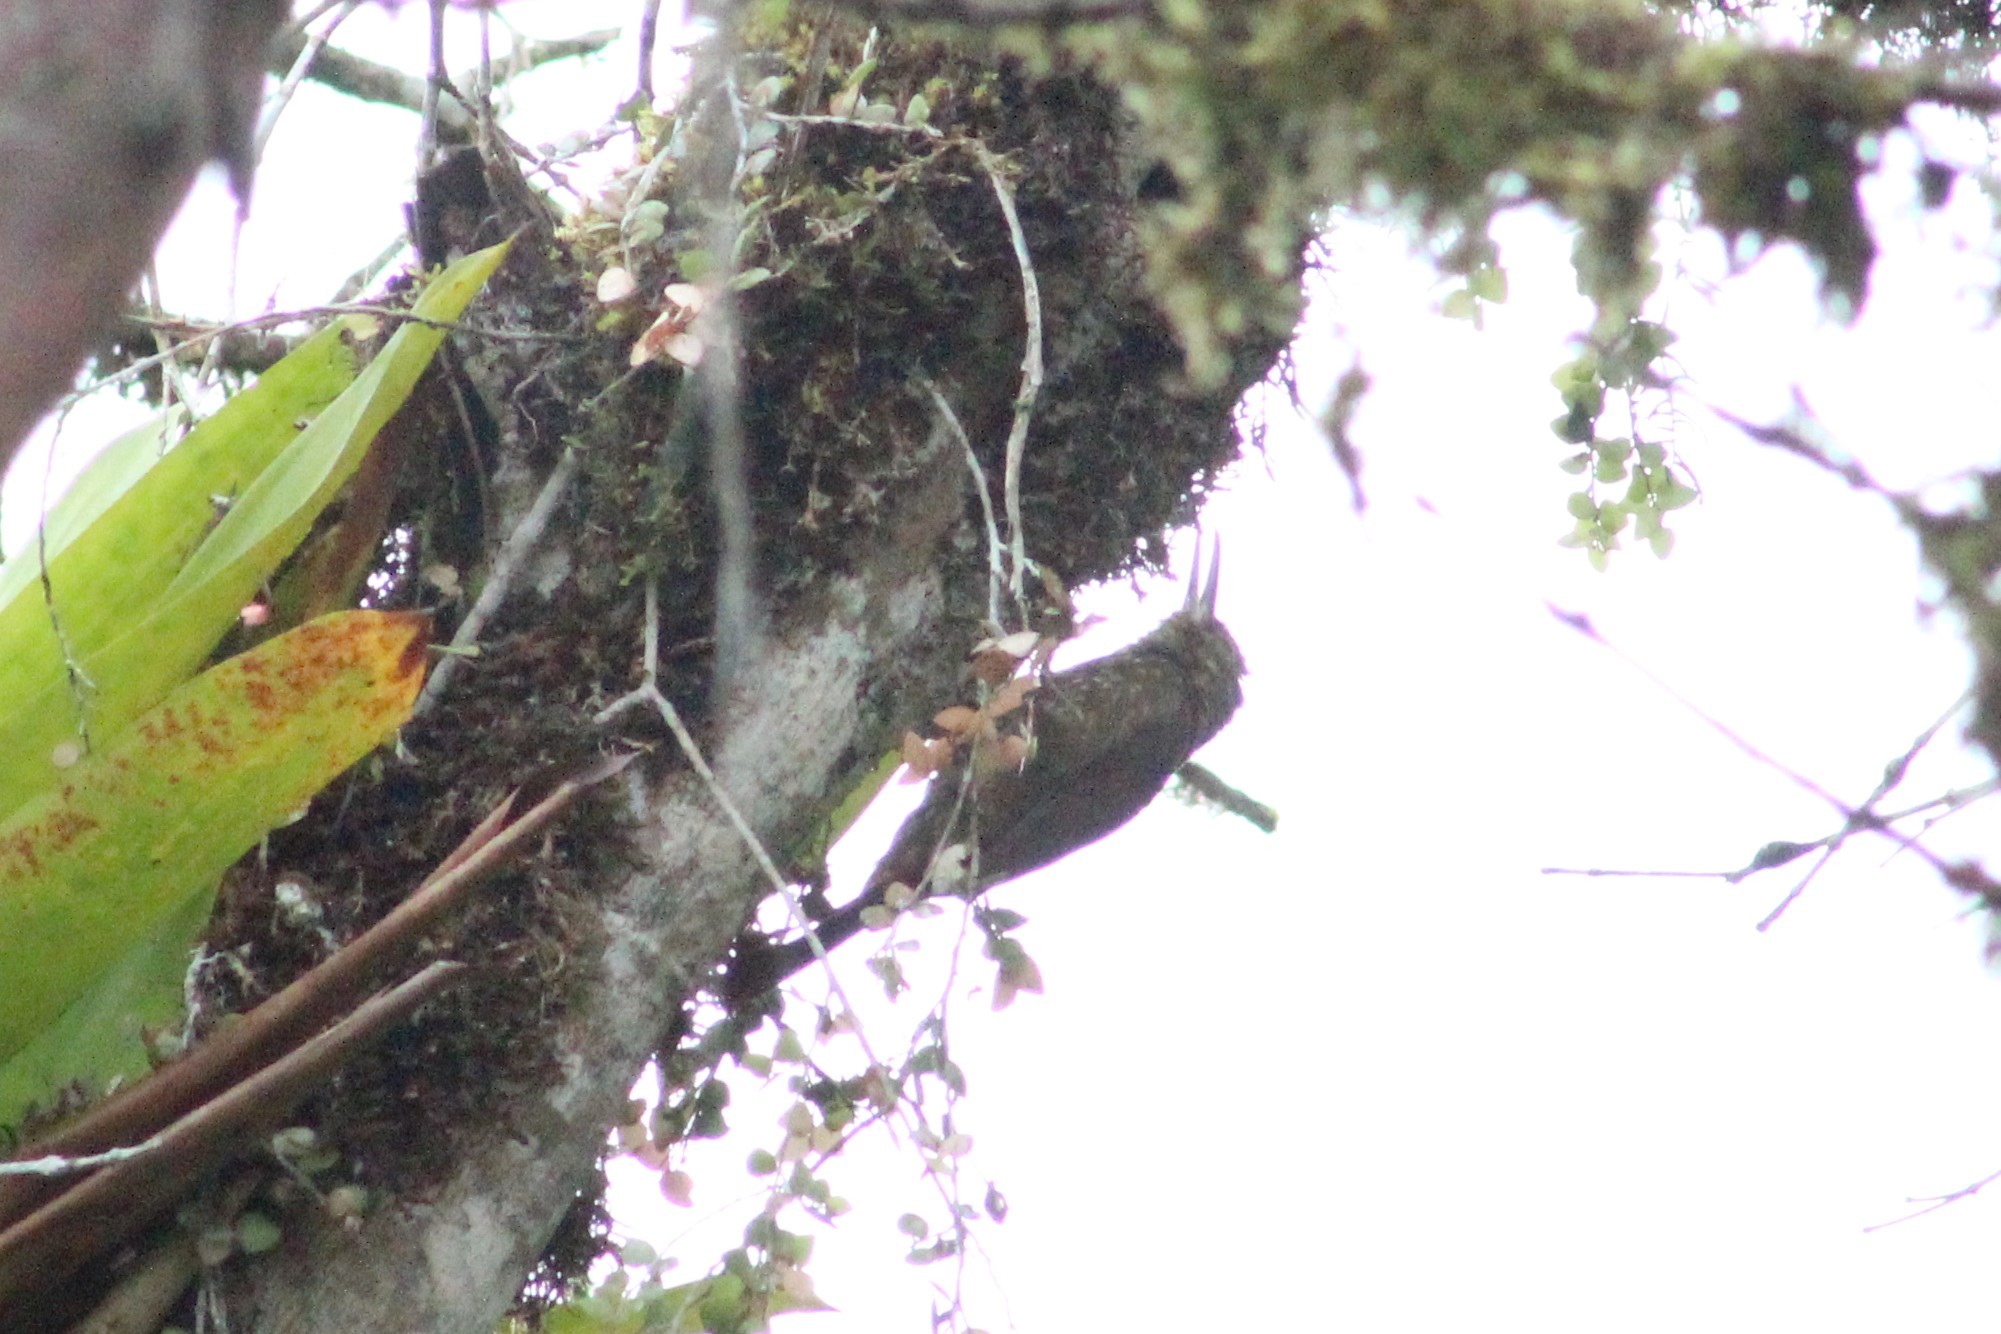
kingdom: Animalia
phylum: Chordata
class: Aves
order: Passeriformes
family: Furnariidae
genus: Xiphorhynchus
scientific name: Xiphorhynchus erythropygius
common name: Spotted woodcreeper
